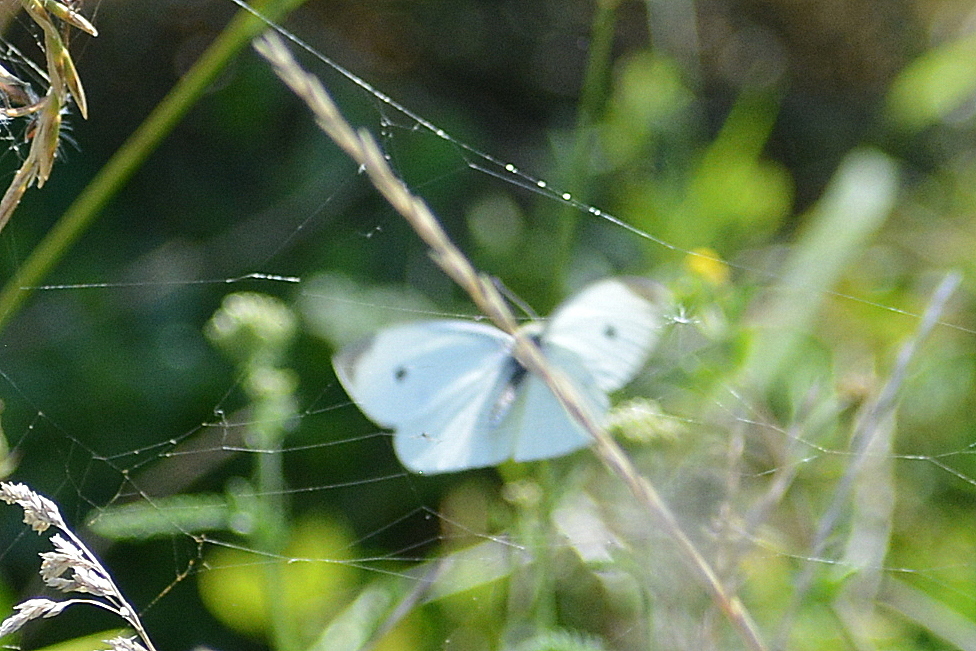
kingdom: Animalia
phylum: Arthropoda
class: Insecta
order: Lepidoptera
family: Pieridae
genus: Pieris
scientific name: Pieris rapae
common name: Small white
